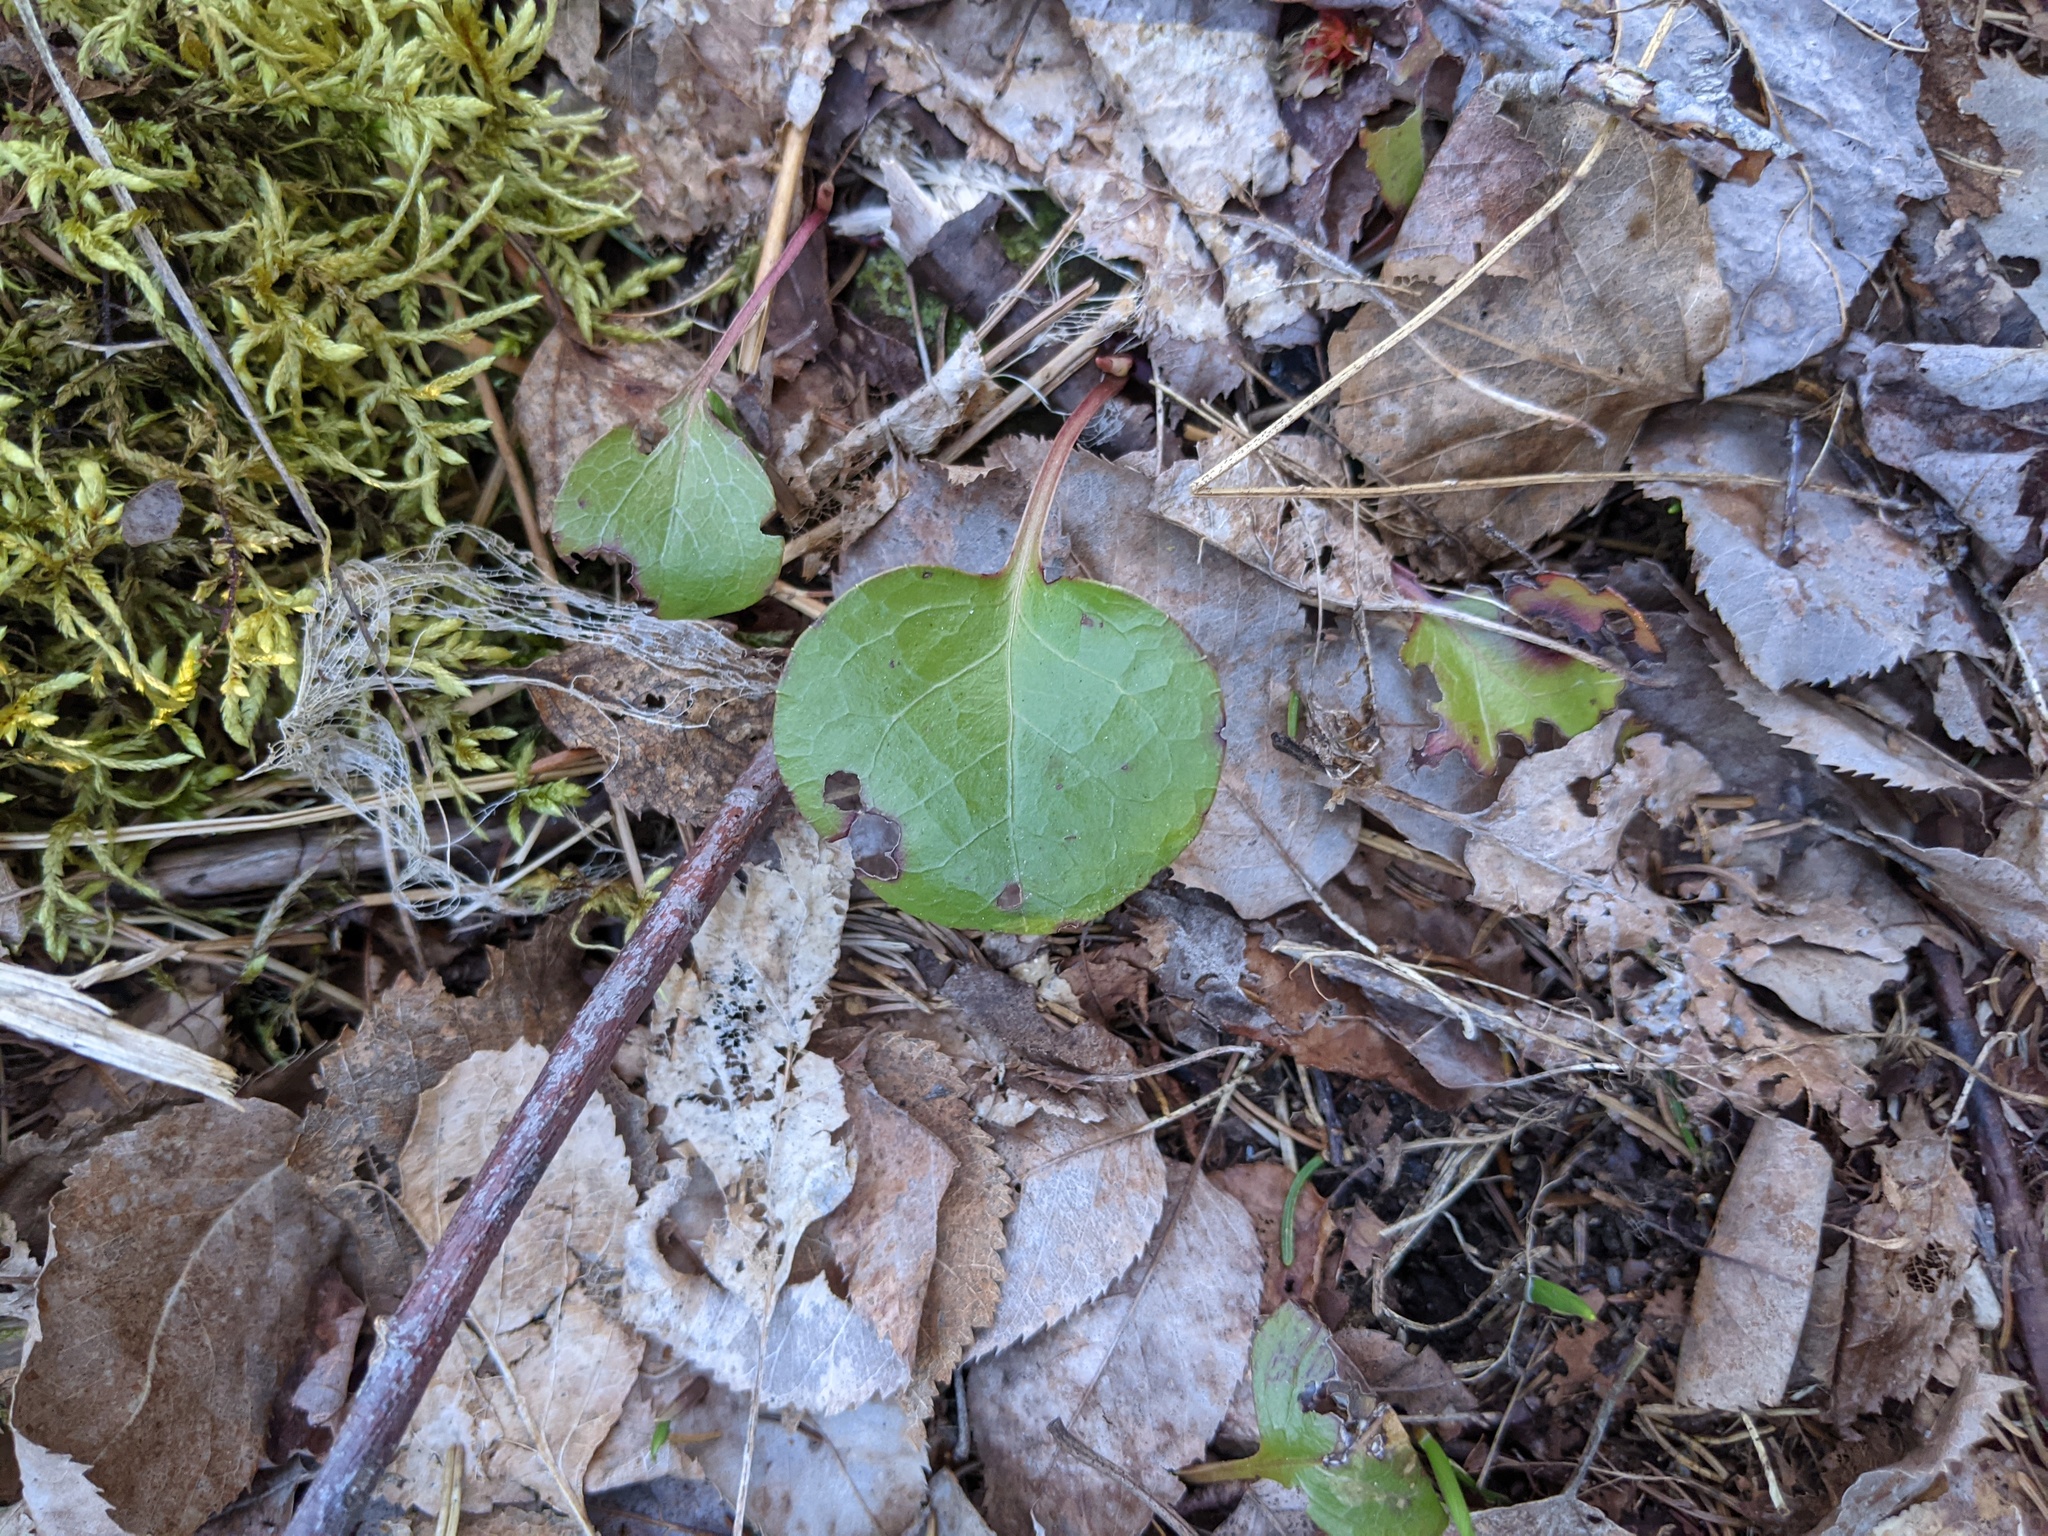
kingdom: Plantae
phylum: Tracheophyta
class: Magnoliopsida
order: Ericales
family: Ericaceae
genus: Pyrola
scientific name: Pyrola americana
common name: American wintergreen
